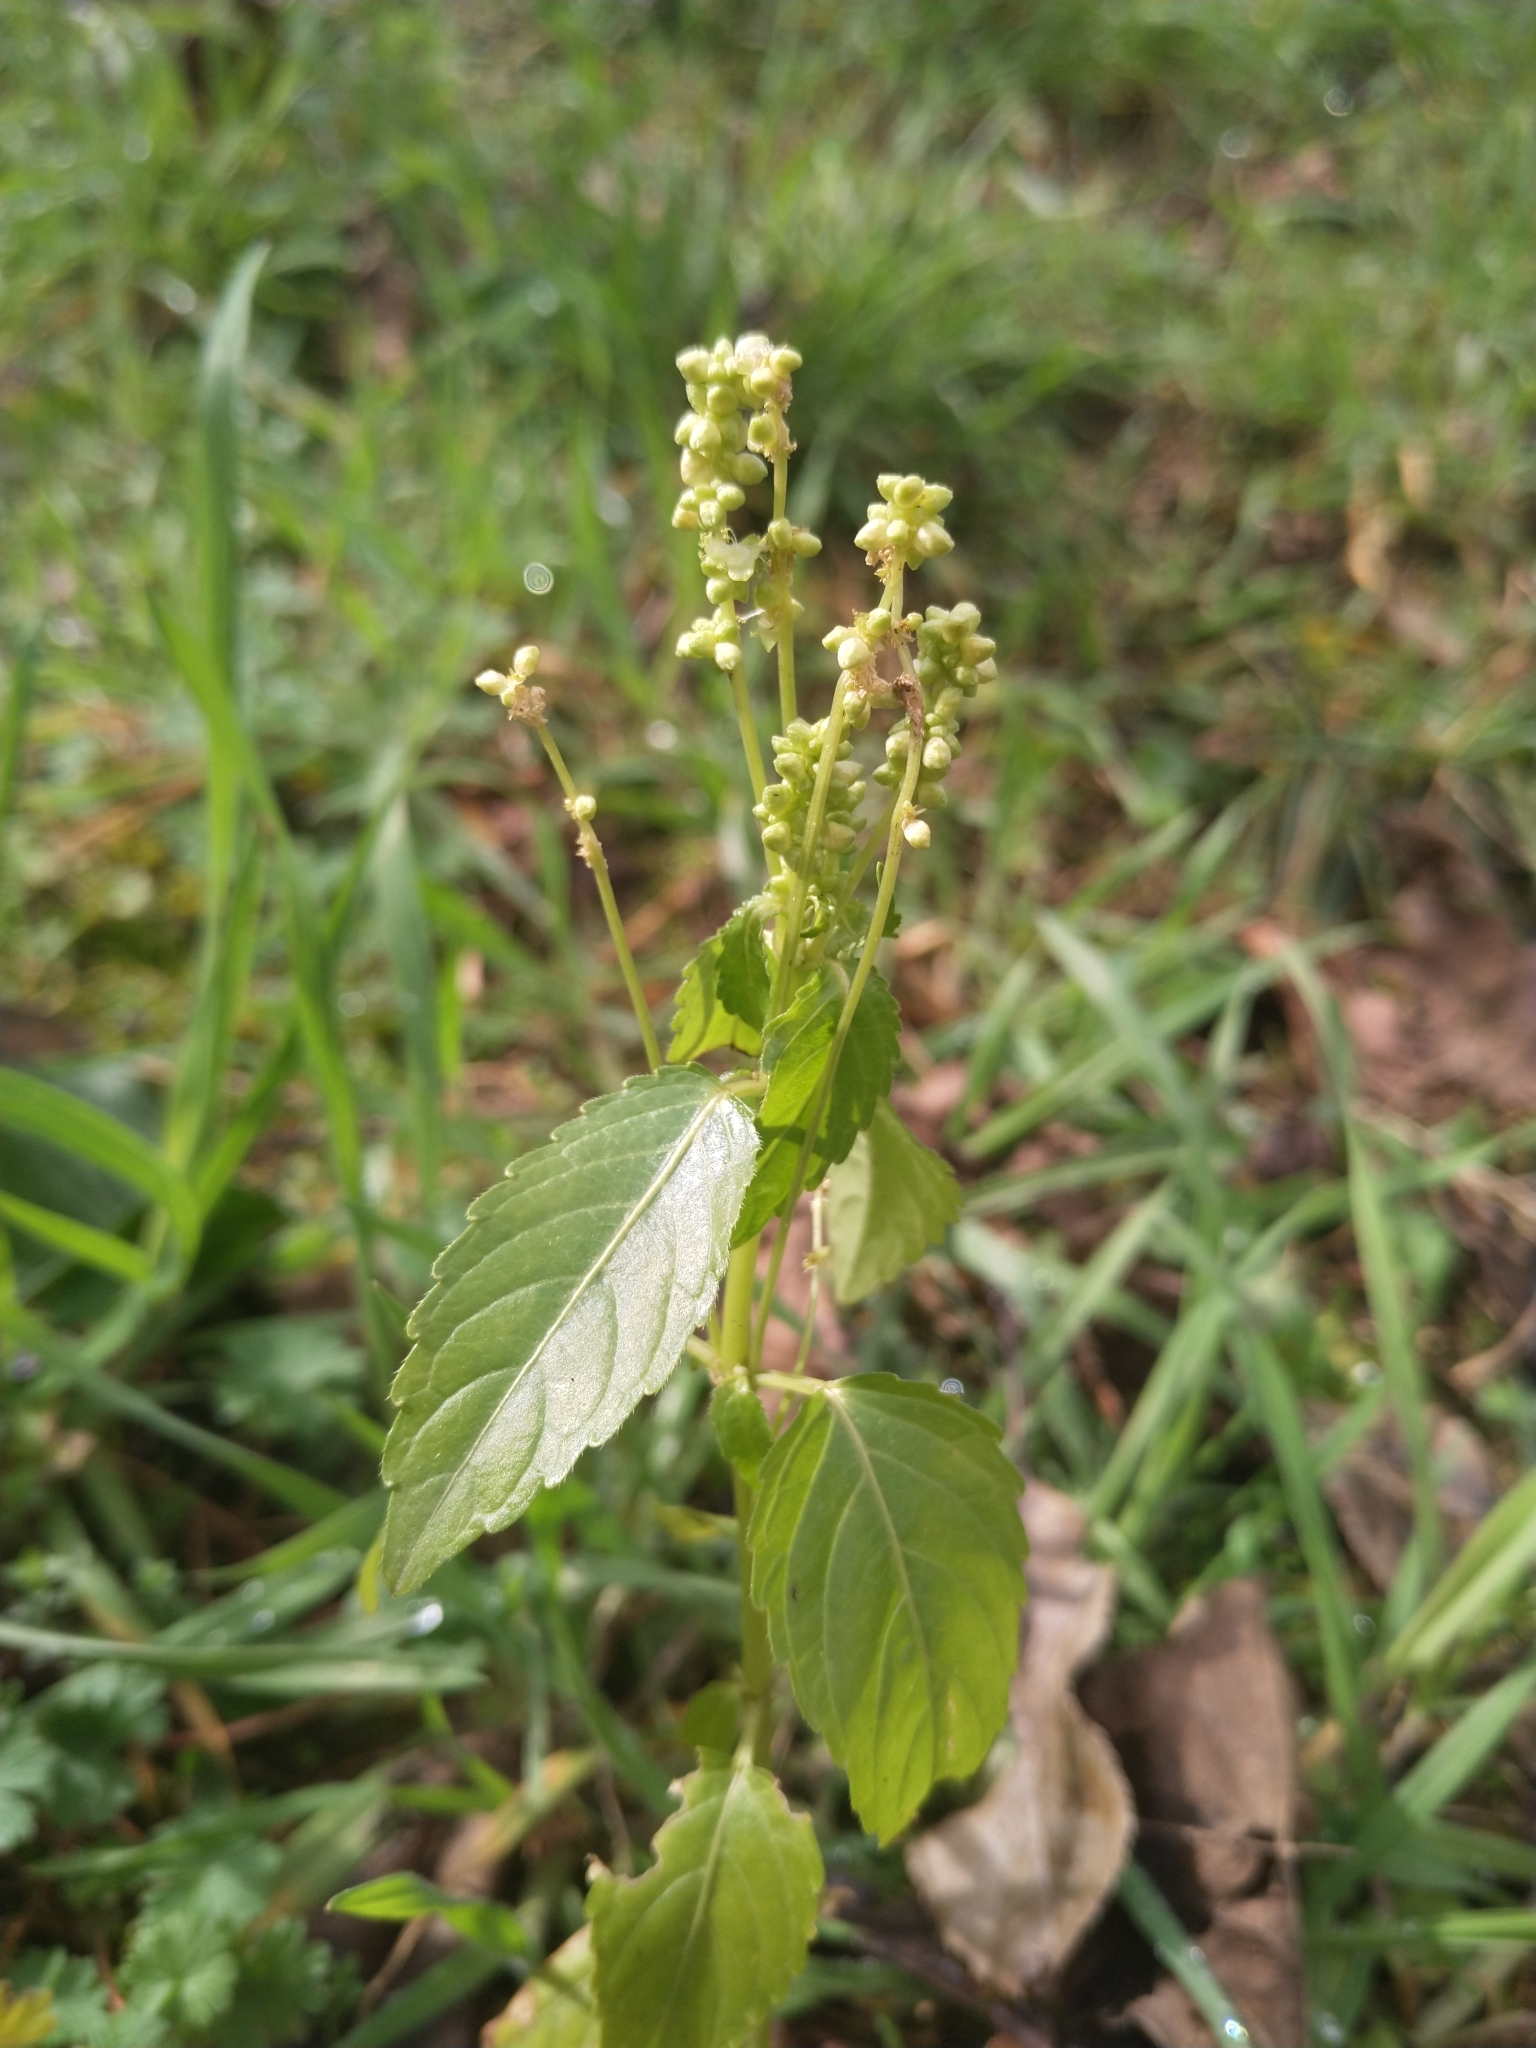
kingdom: Plantae
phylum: Tracheophyta
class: Magnoliopsida
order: Malpighiales
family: Euphorbiaceae
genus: Mercurialis
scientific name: Mercurialis annua
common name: Annual mercury
